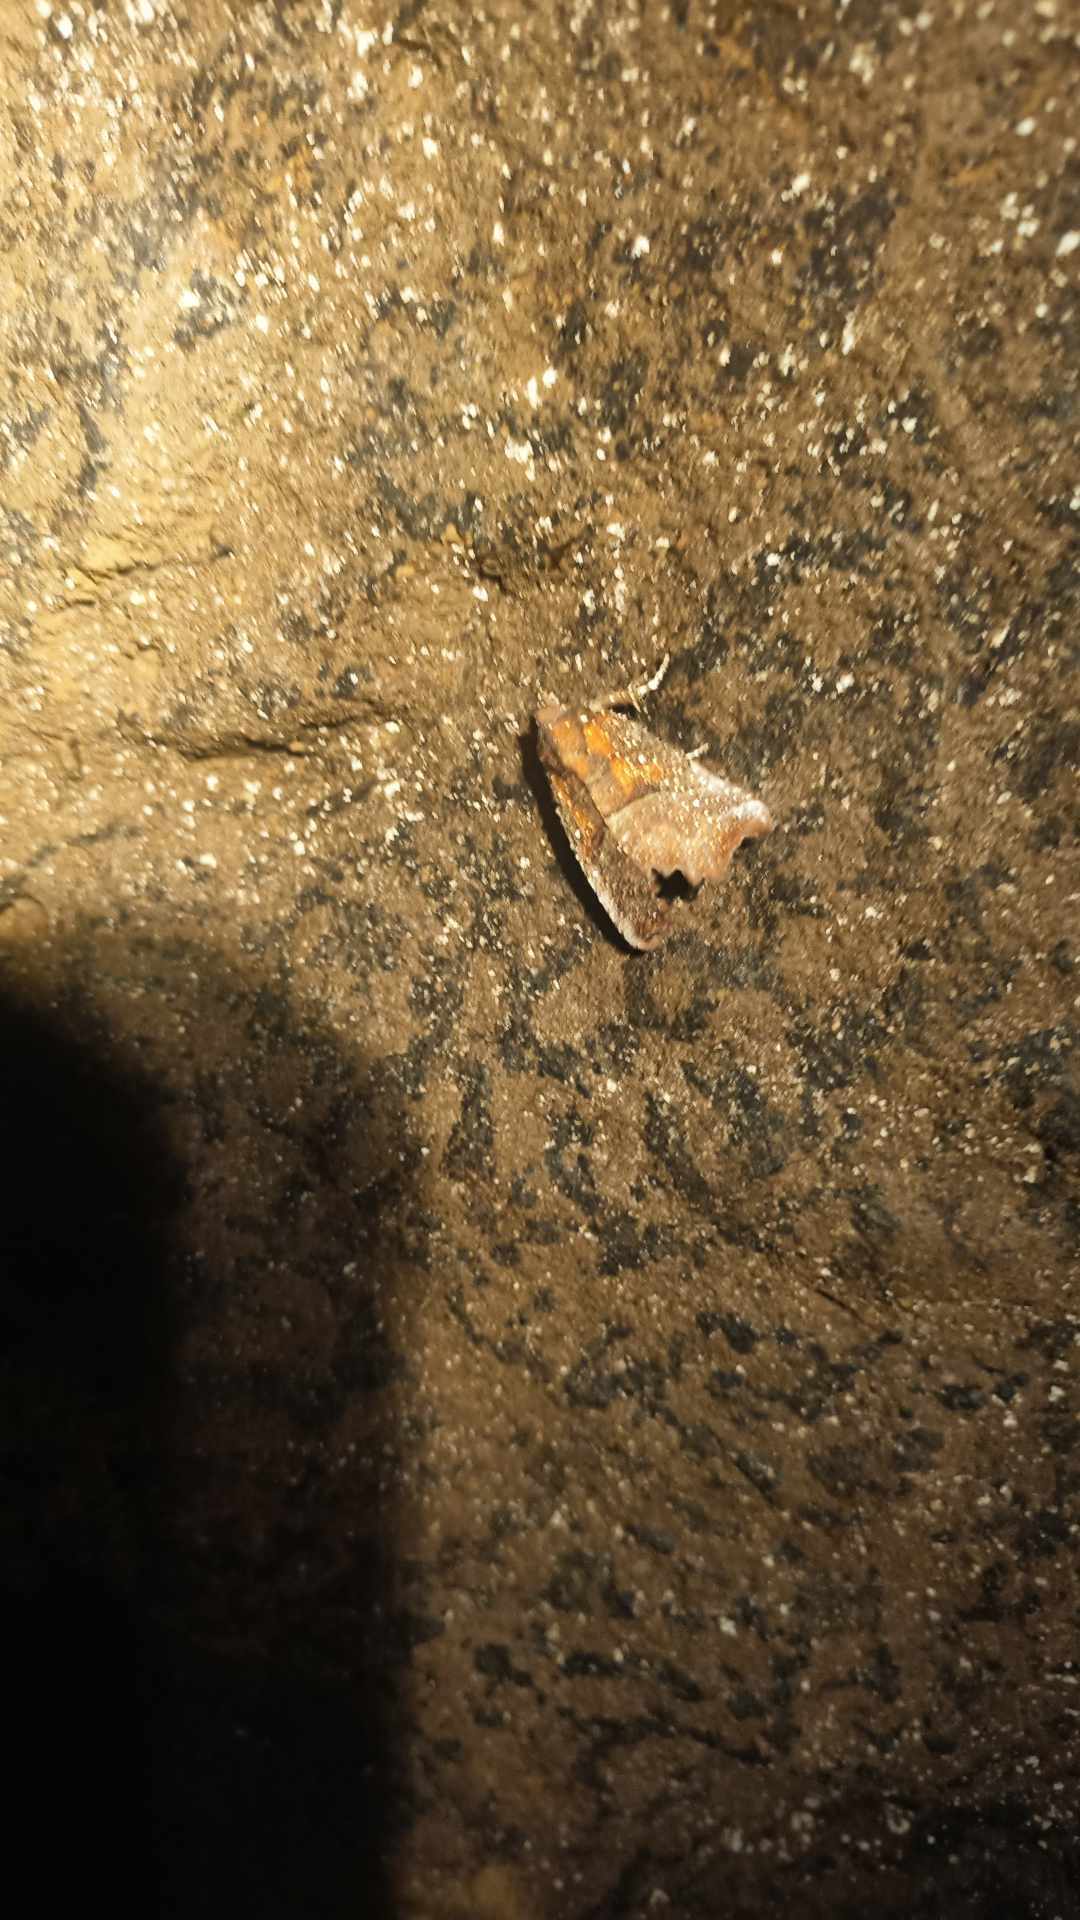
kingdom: Animalia
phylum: Arthropoda
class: Insecta
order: Lepidoptera
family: Erebidae
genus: Scoliopteryx
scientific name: Scoliopteryx libatrix
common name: Herald
